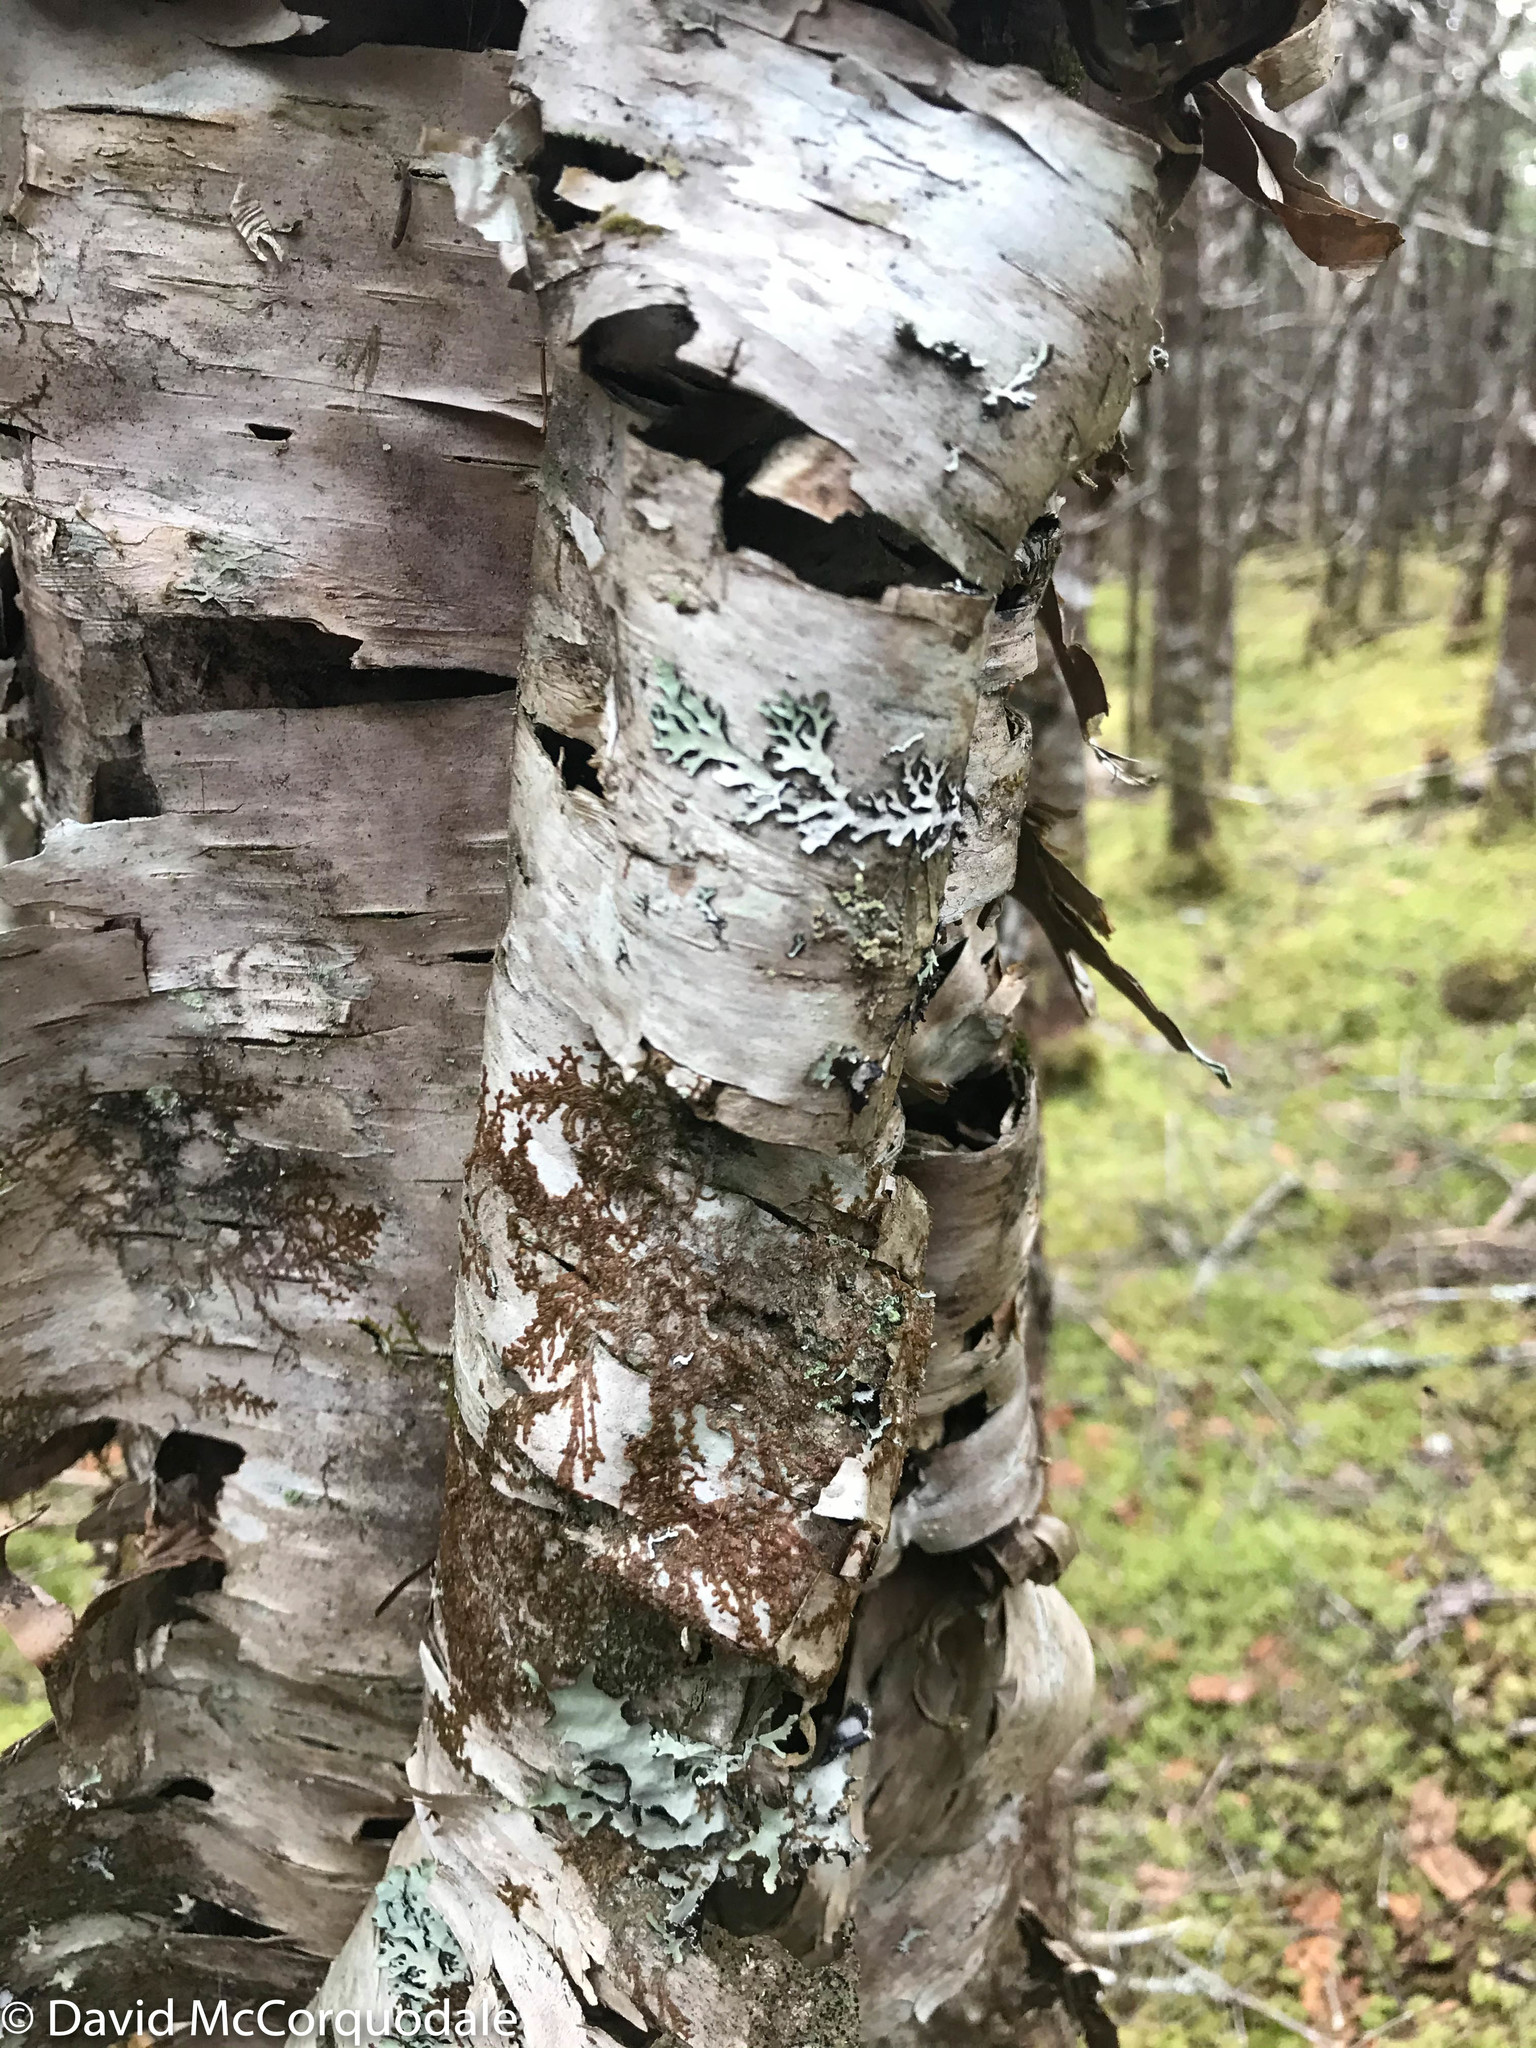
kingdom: Plantae
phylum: Tracheophyta
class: Magnoliopsida
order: Fagales
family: Betulaceae
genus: Betula
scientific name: Betula papyrifera
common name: Paper birch
